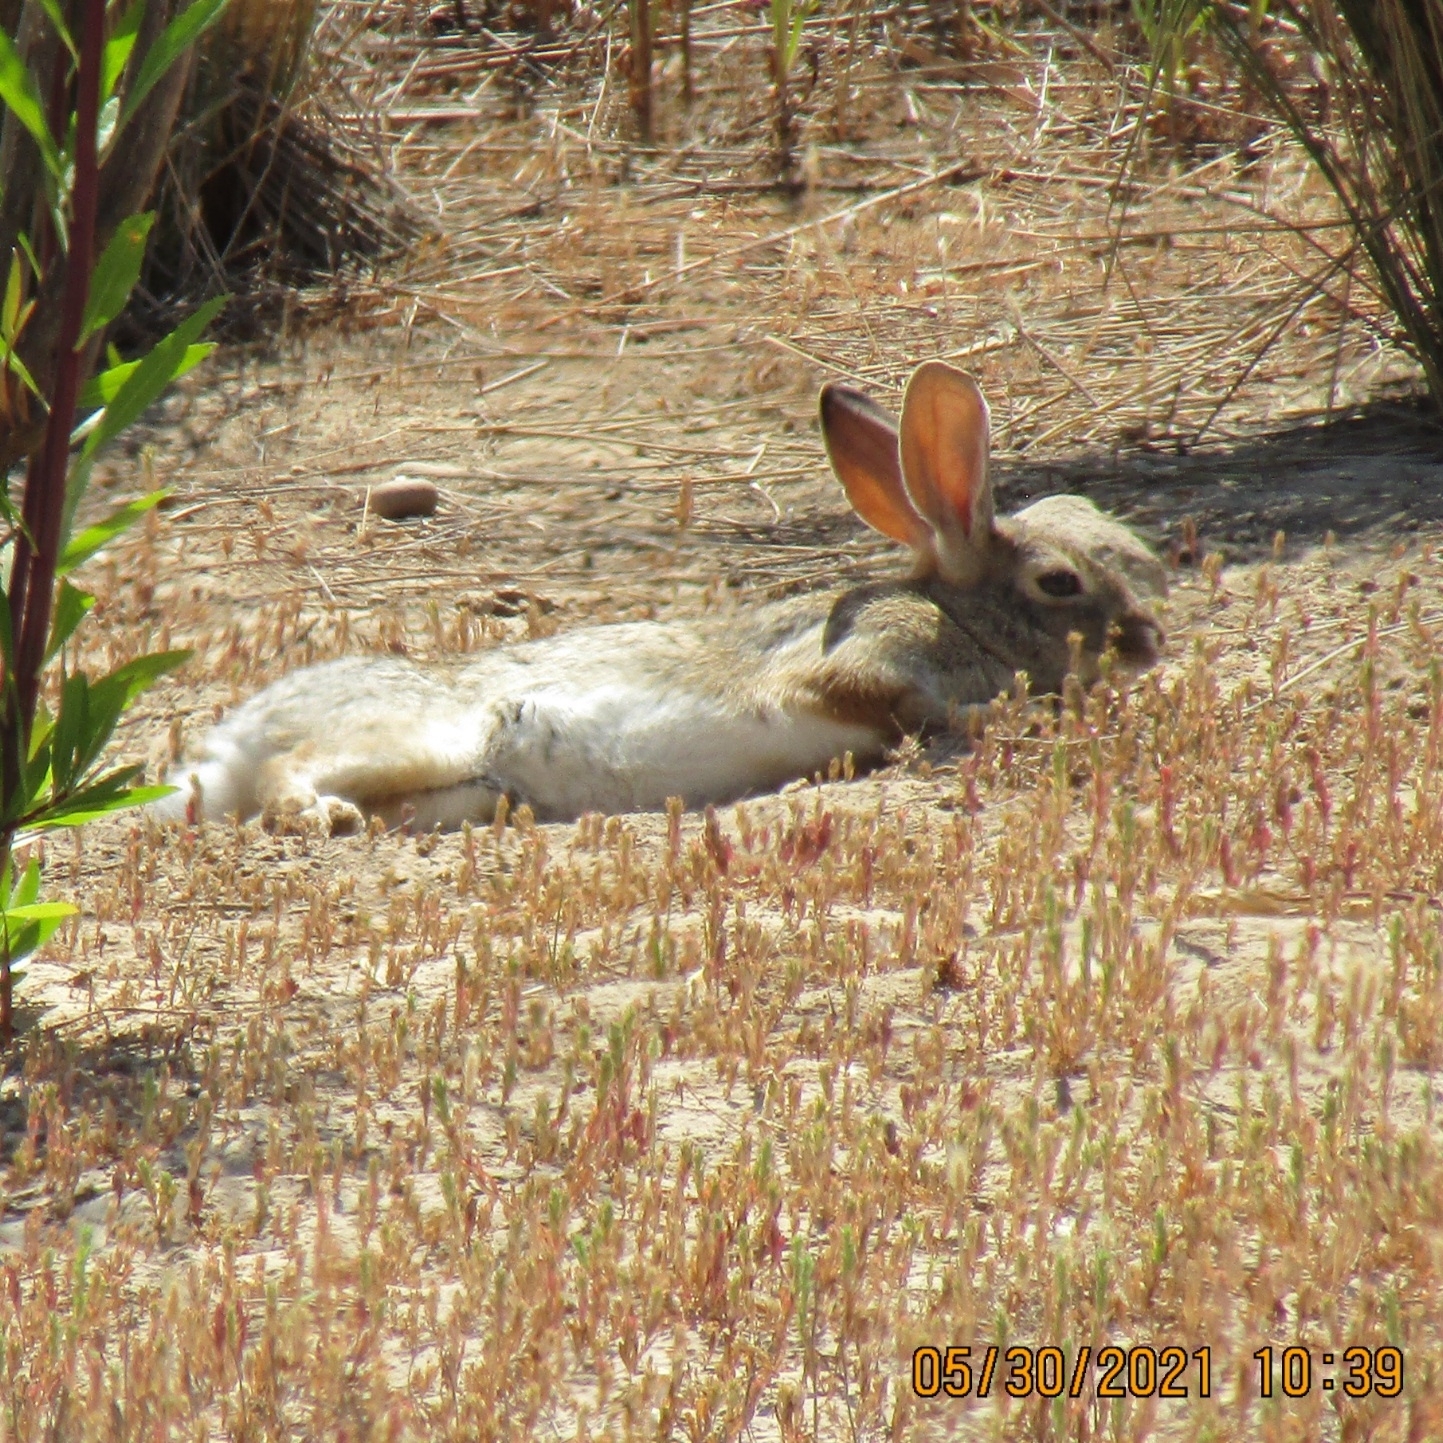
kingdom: Animalia
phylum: Chordata
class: Mammalia
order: Lagomorpha
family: Leporidae
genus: Sylvilagus
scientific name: Sylvilagus audubonii
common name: Desert cottontail
